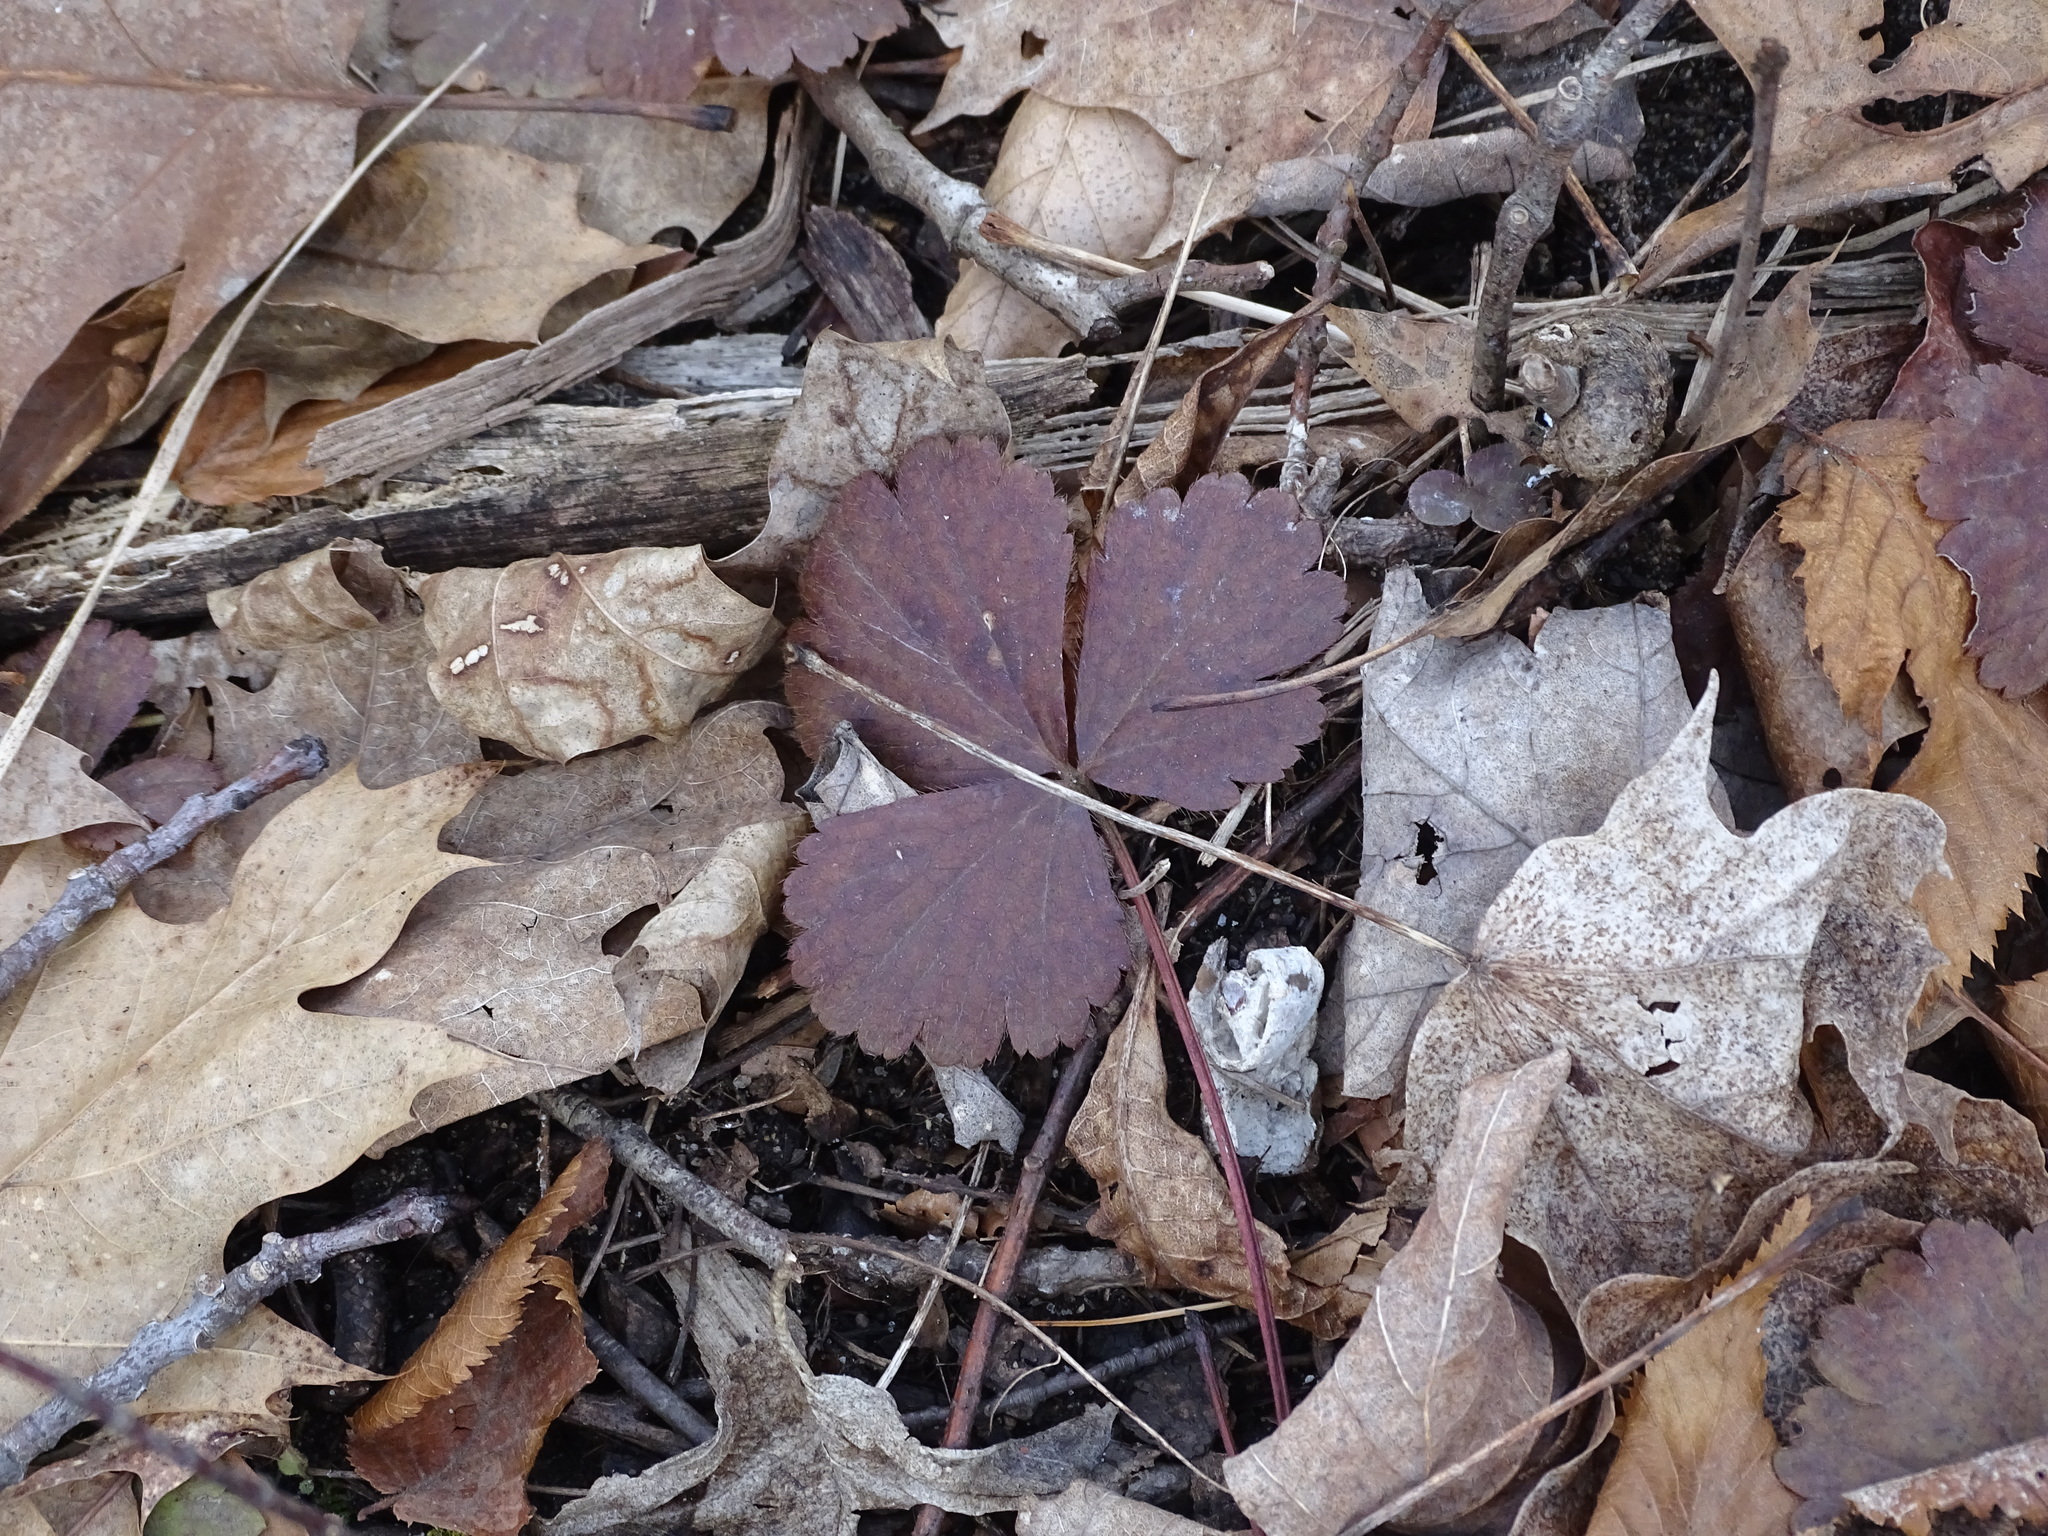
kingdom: Plantae
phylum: Tracheophyta
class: Magnoliopsida
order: Rosales
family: Rosaceae
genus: Geum
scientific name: Geum fragarioides
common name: Appalachian barren strawberry
